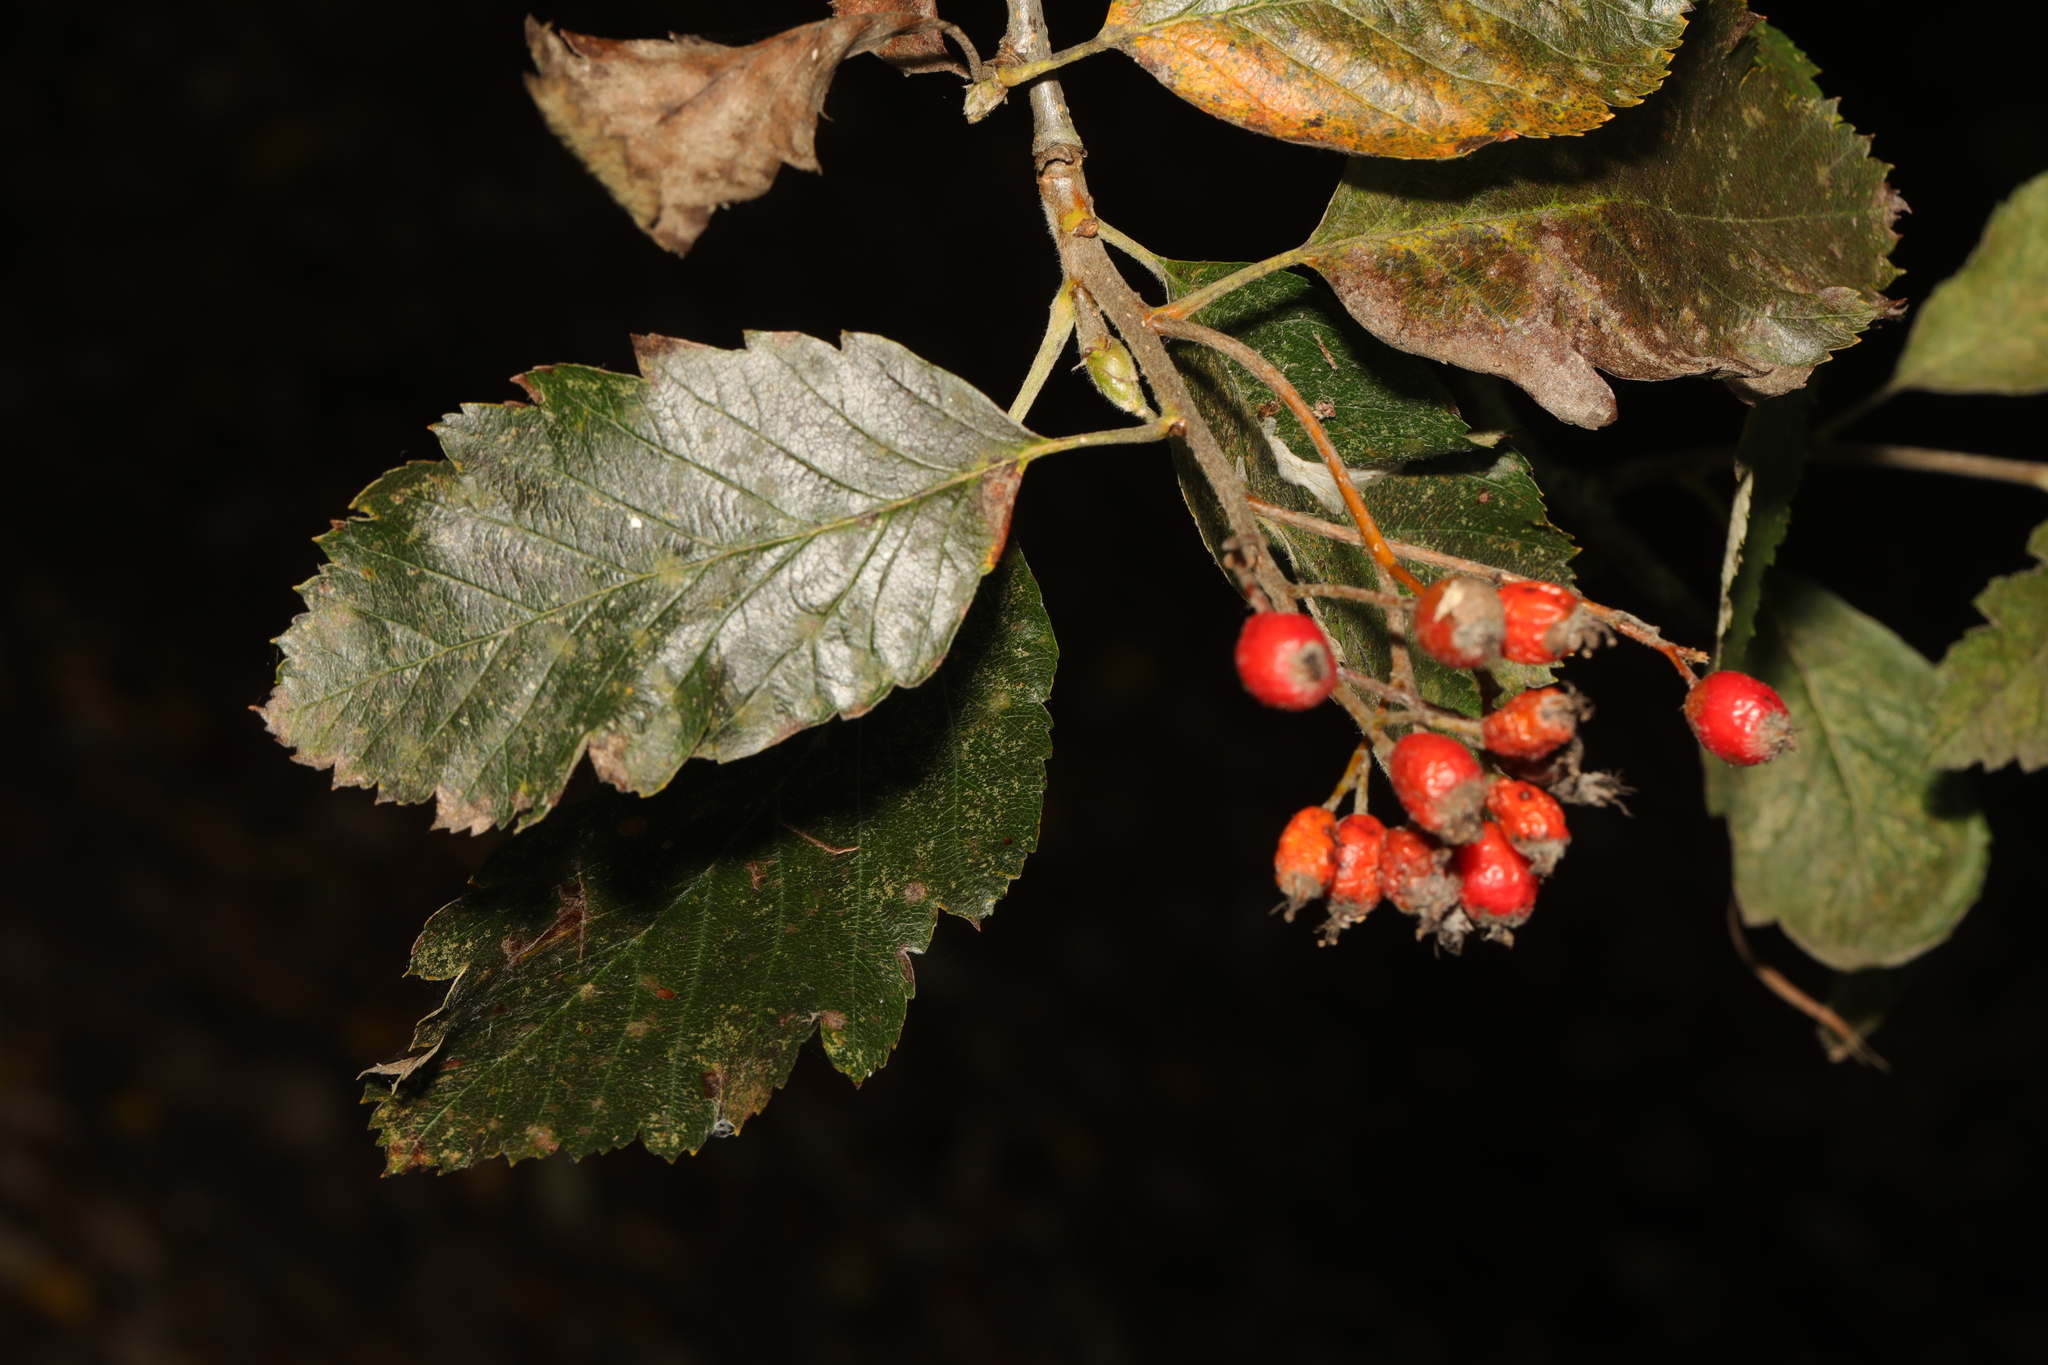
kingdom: Plantae
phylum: Tracheophyta
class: Magnoliopsida
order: Rosales
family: Rosaceae
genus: Scandosorbus
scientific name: Scandosorbus intermedia
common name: Swedish whitebeam
